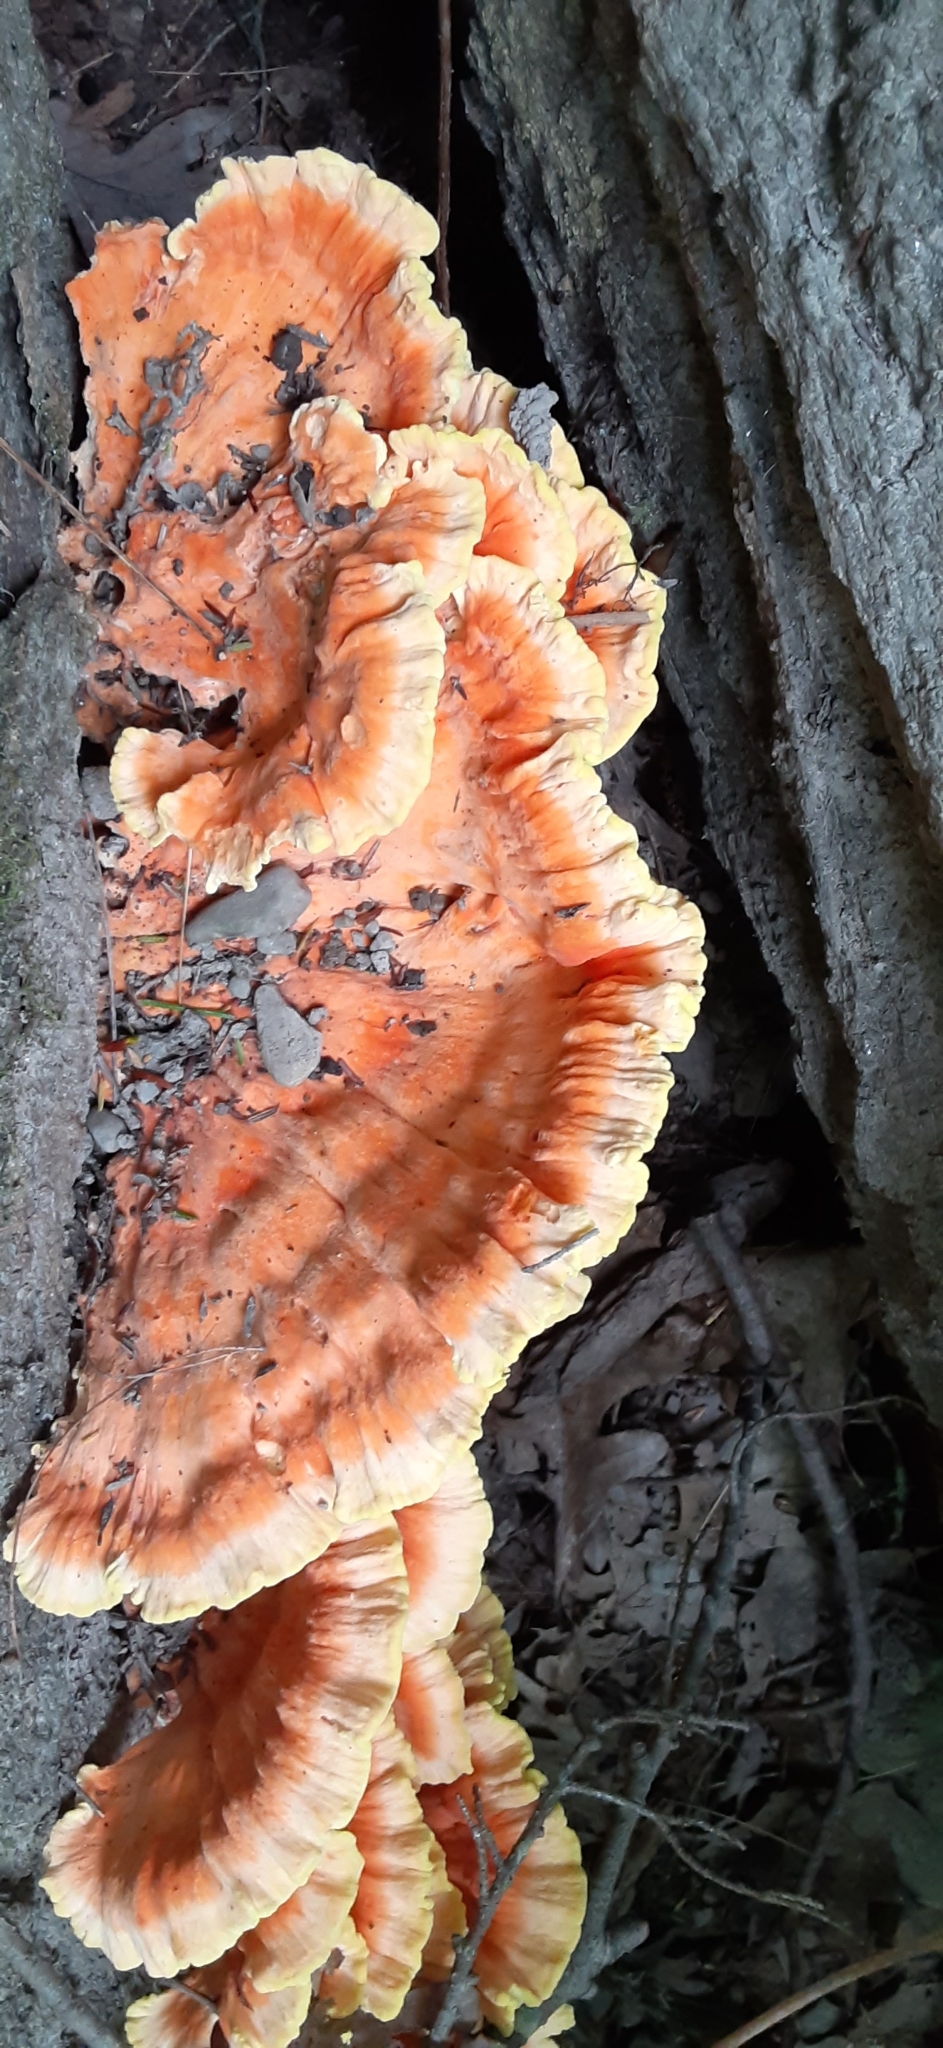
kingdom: Fungi
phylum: Basidiomycota
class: Agaricomycetes
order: Polyporales
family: Laetiporaceae
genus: Laetiporus
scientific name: Laetiporus sulphureus
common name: Chicken of the woods
